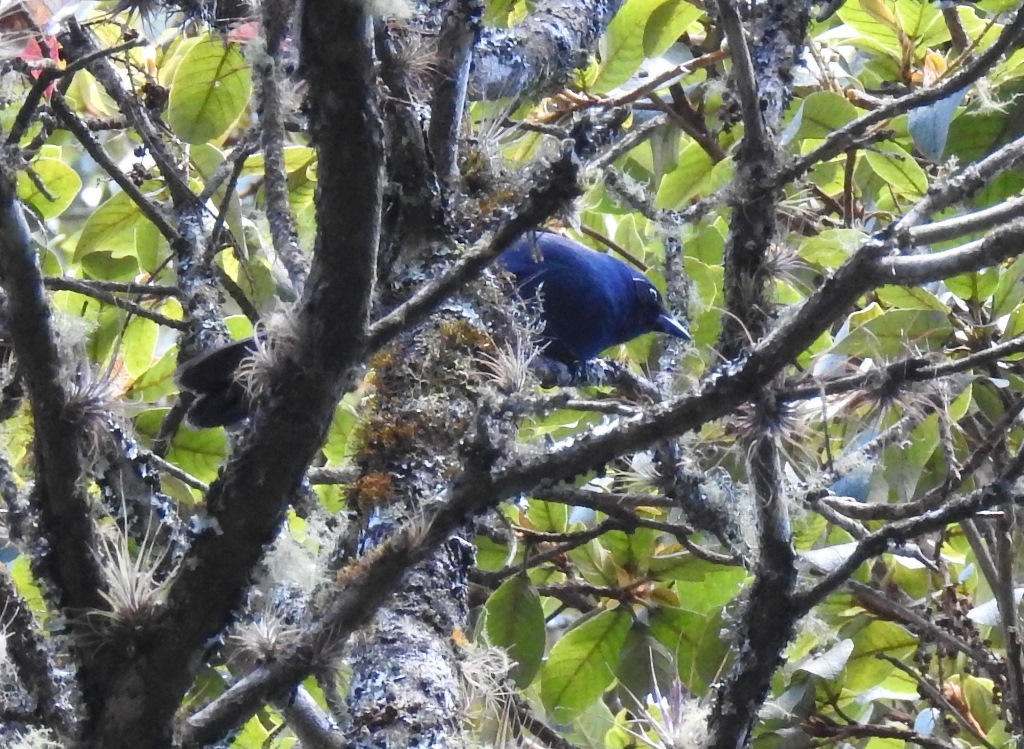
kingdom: Animalia
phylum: Chordata
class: Aves
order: Passeriformes
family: Corvidae
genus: Cyanolyca
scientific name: Cyanolyca pumilo
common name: Black-throated jay
